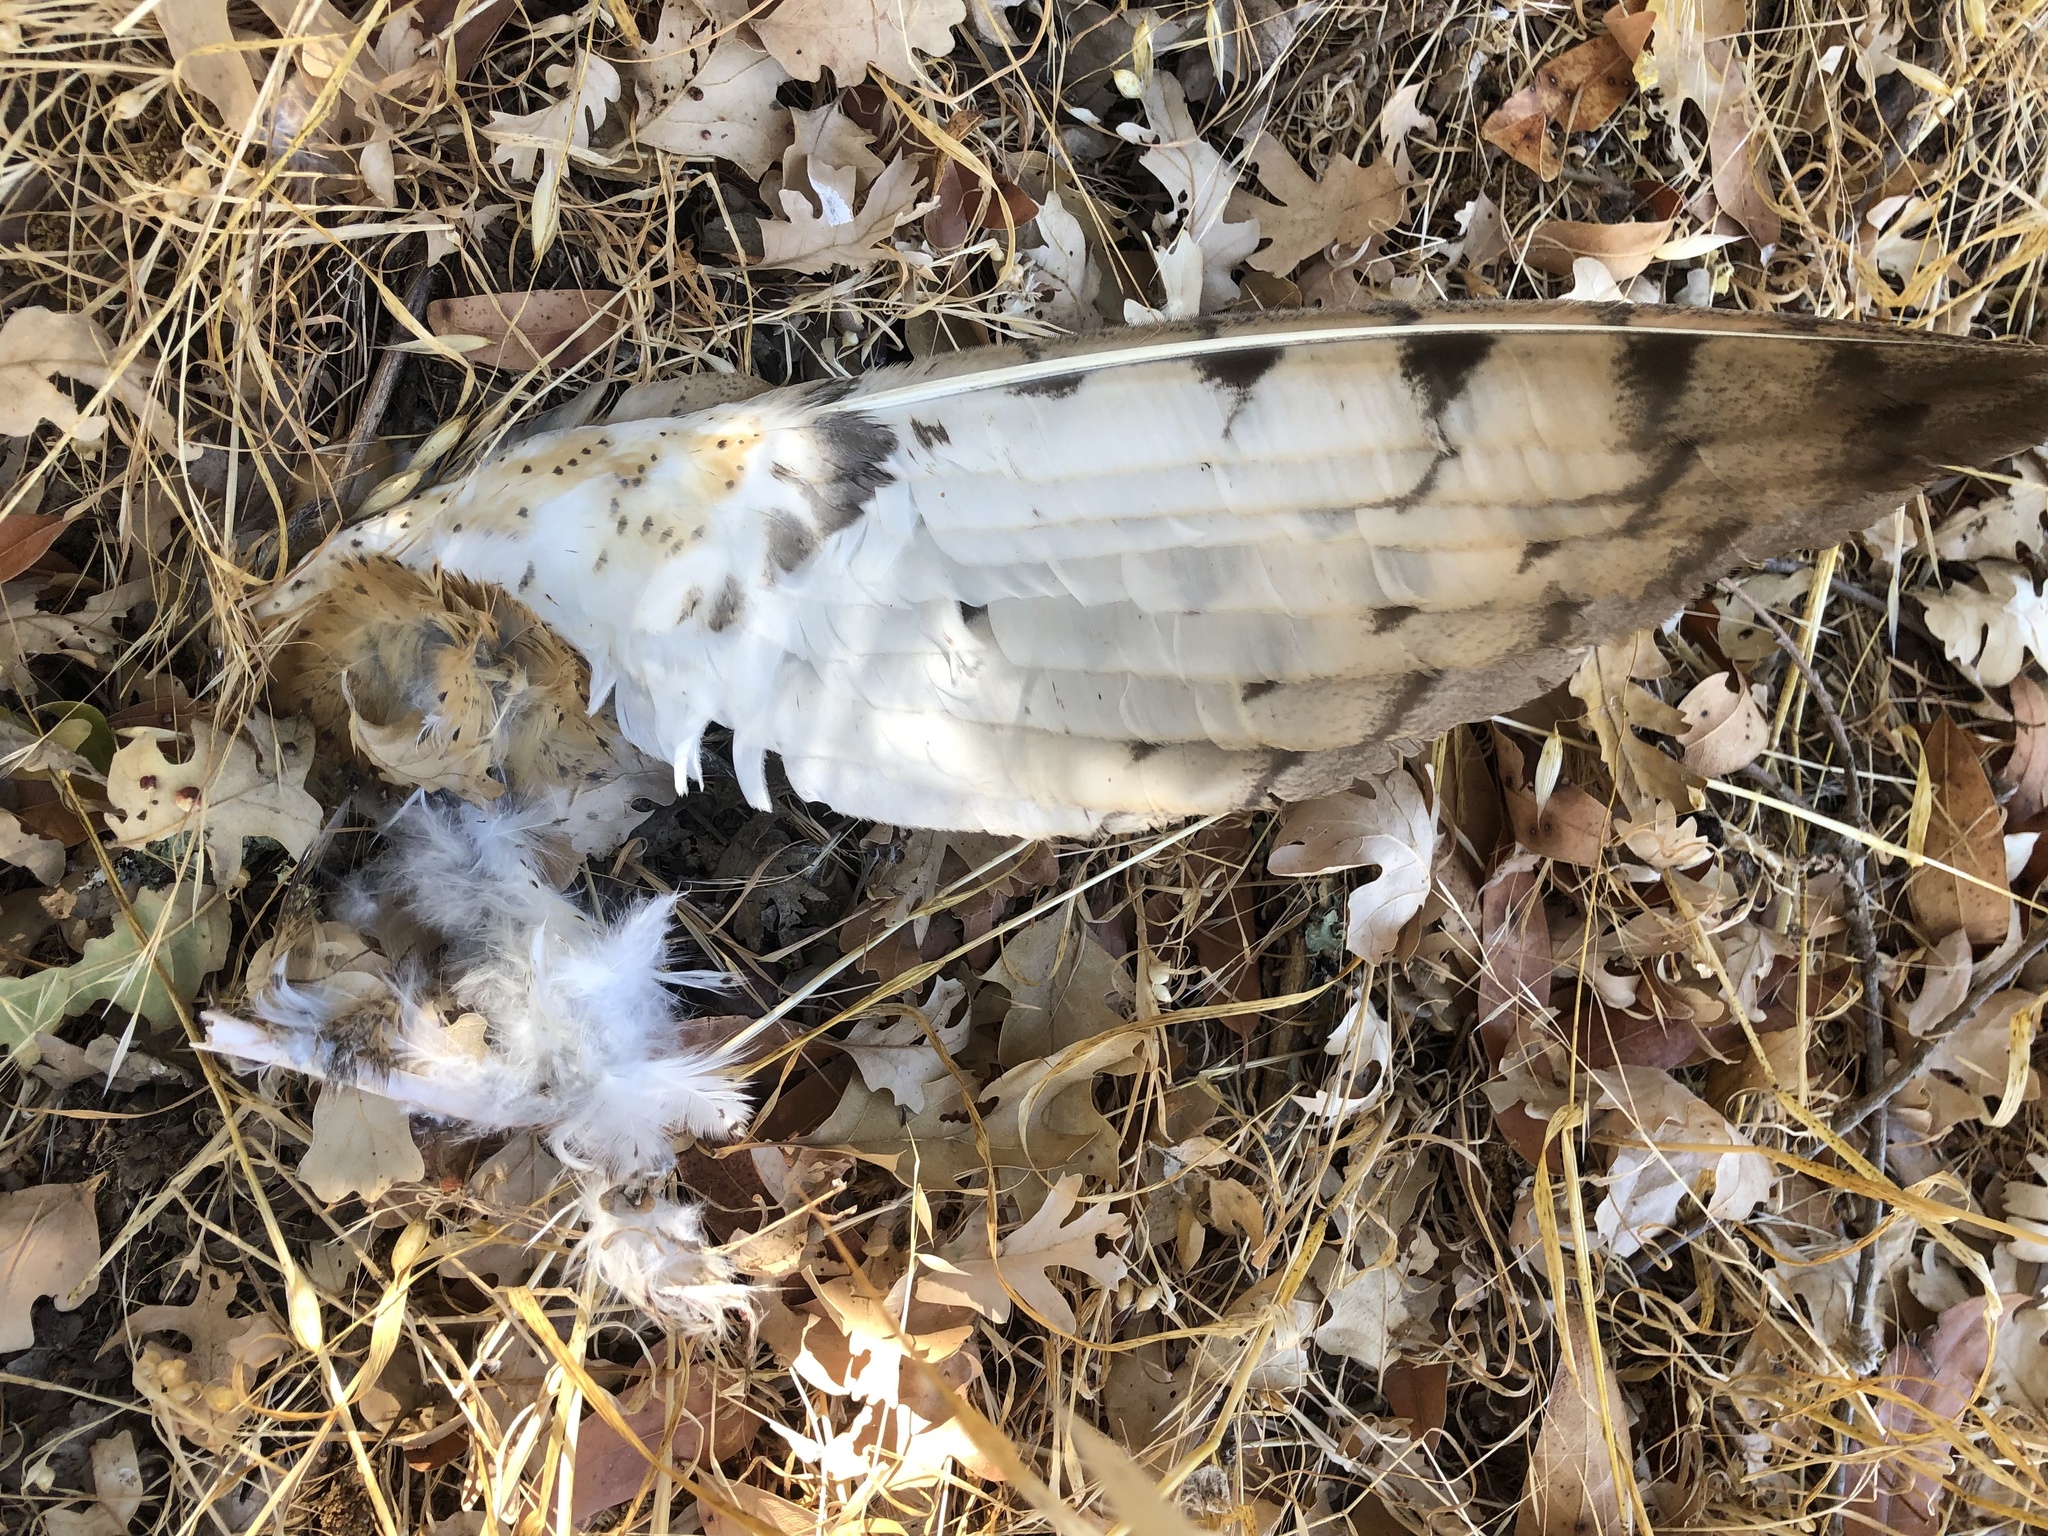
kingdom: Animalia
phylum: Chordata
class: Aves
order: Strigiformes
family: Tytonidae
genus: Tyto
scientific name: Tyto alba
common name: Barn owl
